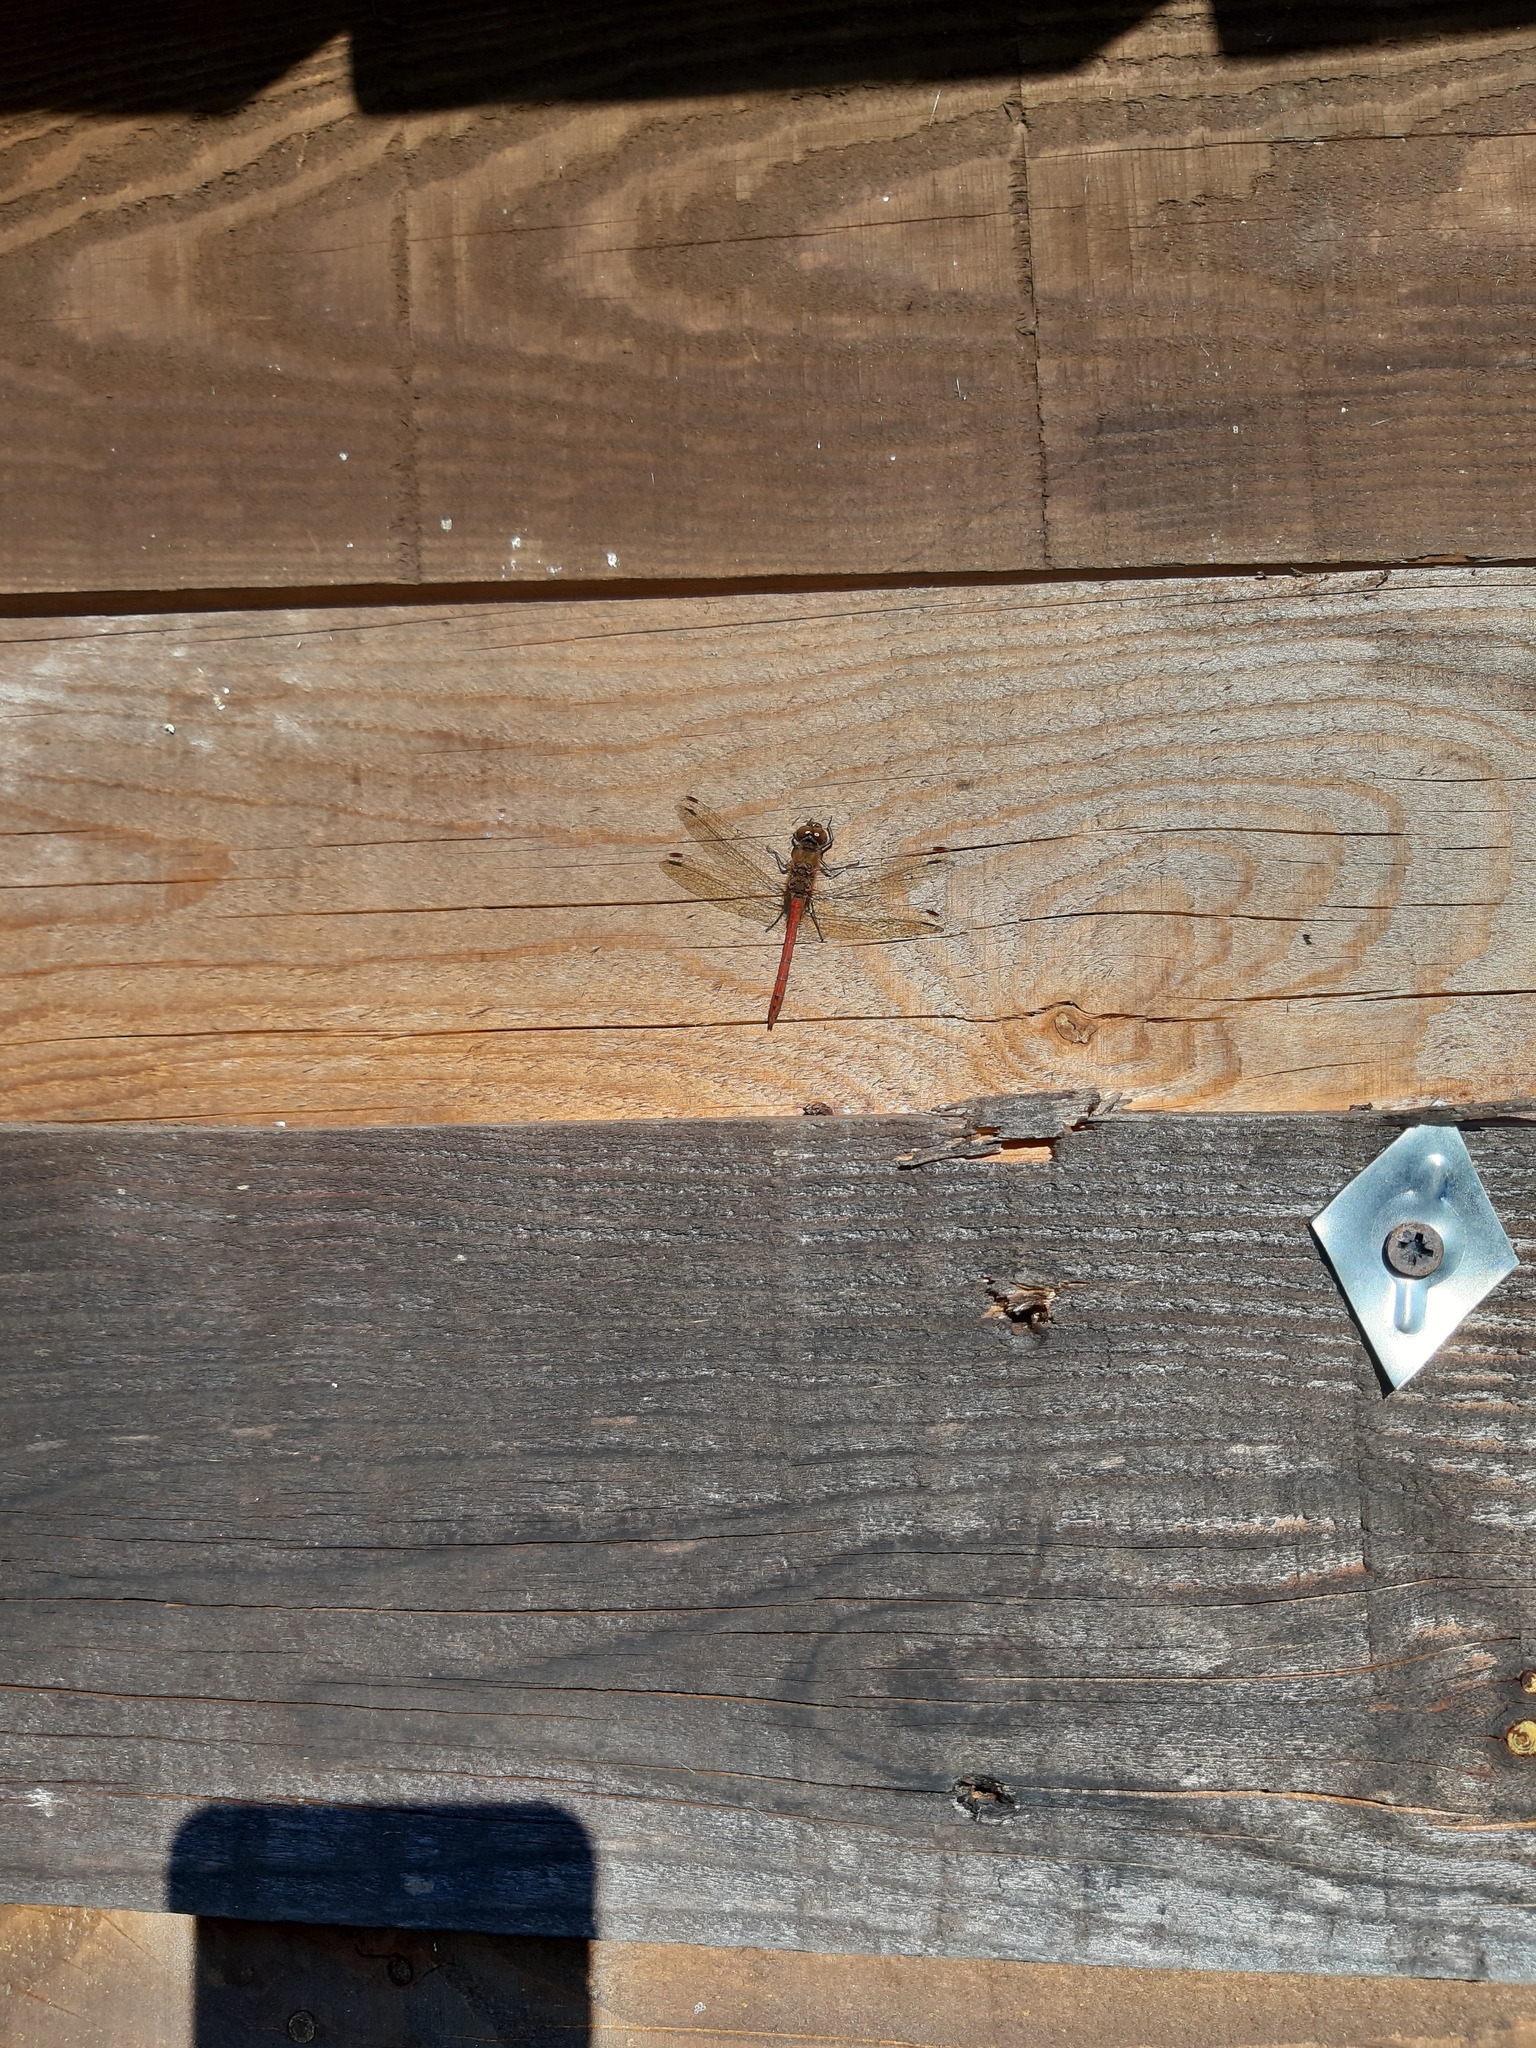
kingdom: Animalia
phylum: Arthropoda
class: Insecta
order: Odonata
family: Libellulidae
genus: Sympetrum
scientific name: Sympetrum striolatum
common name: Common darter
